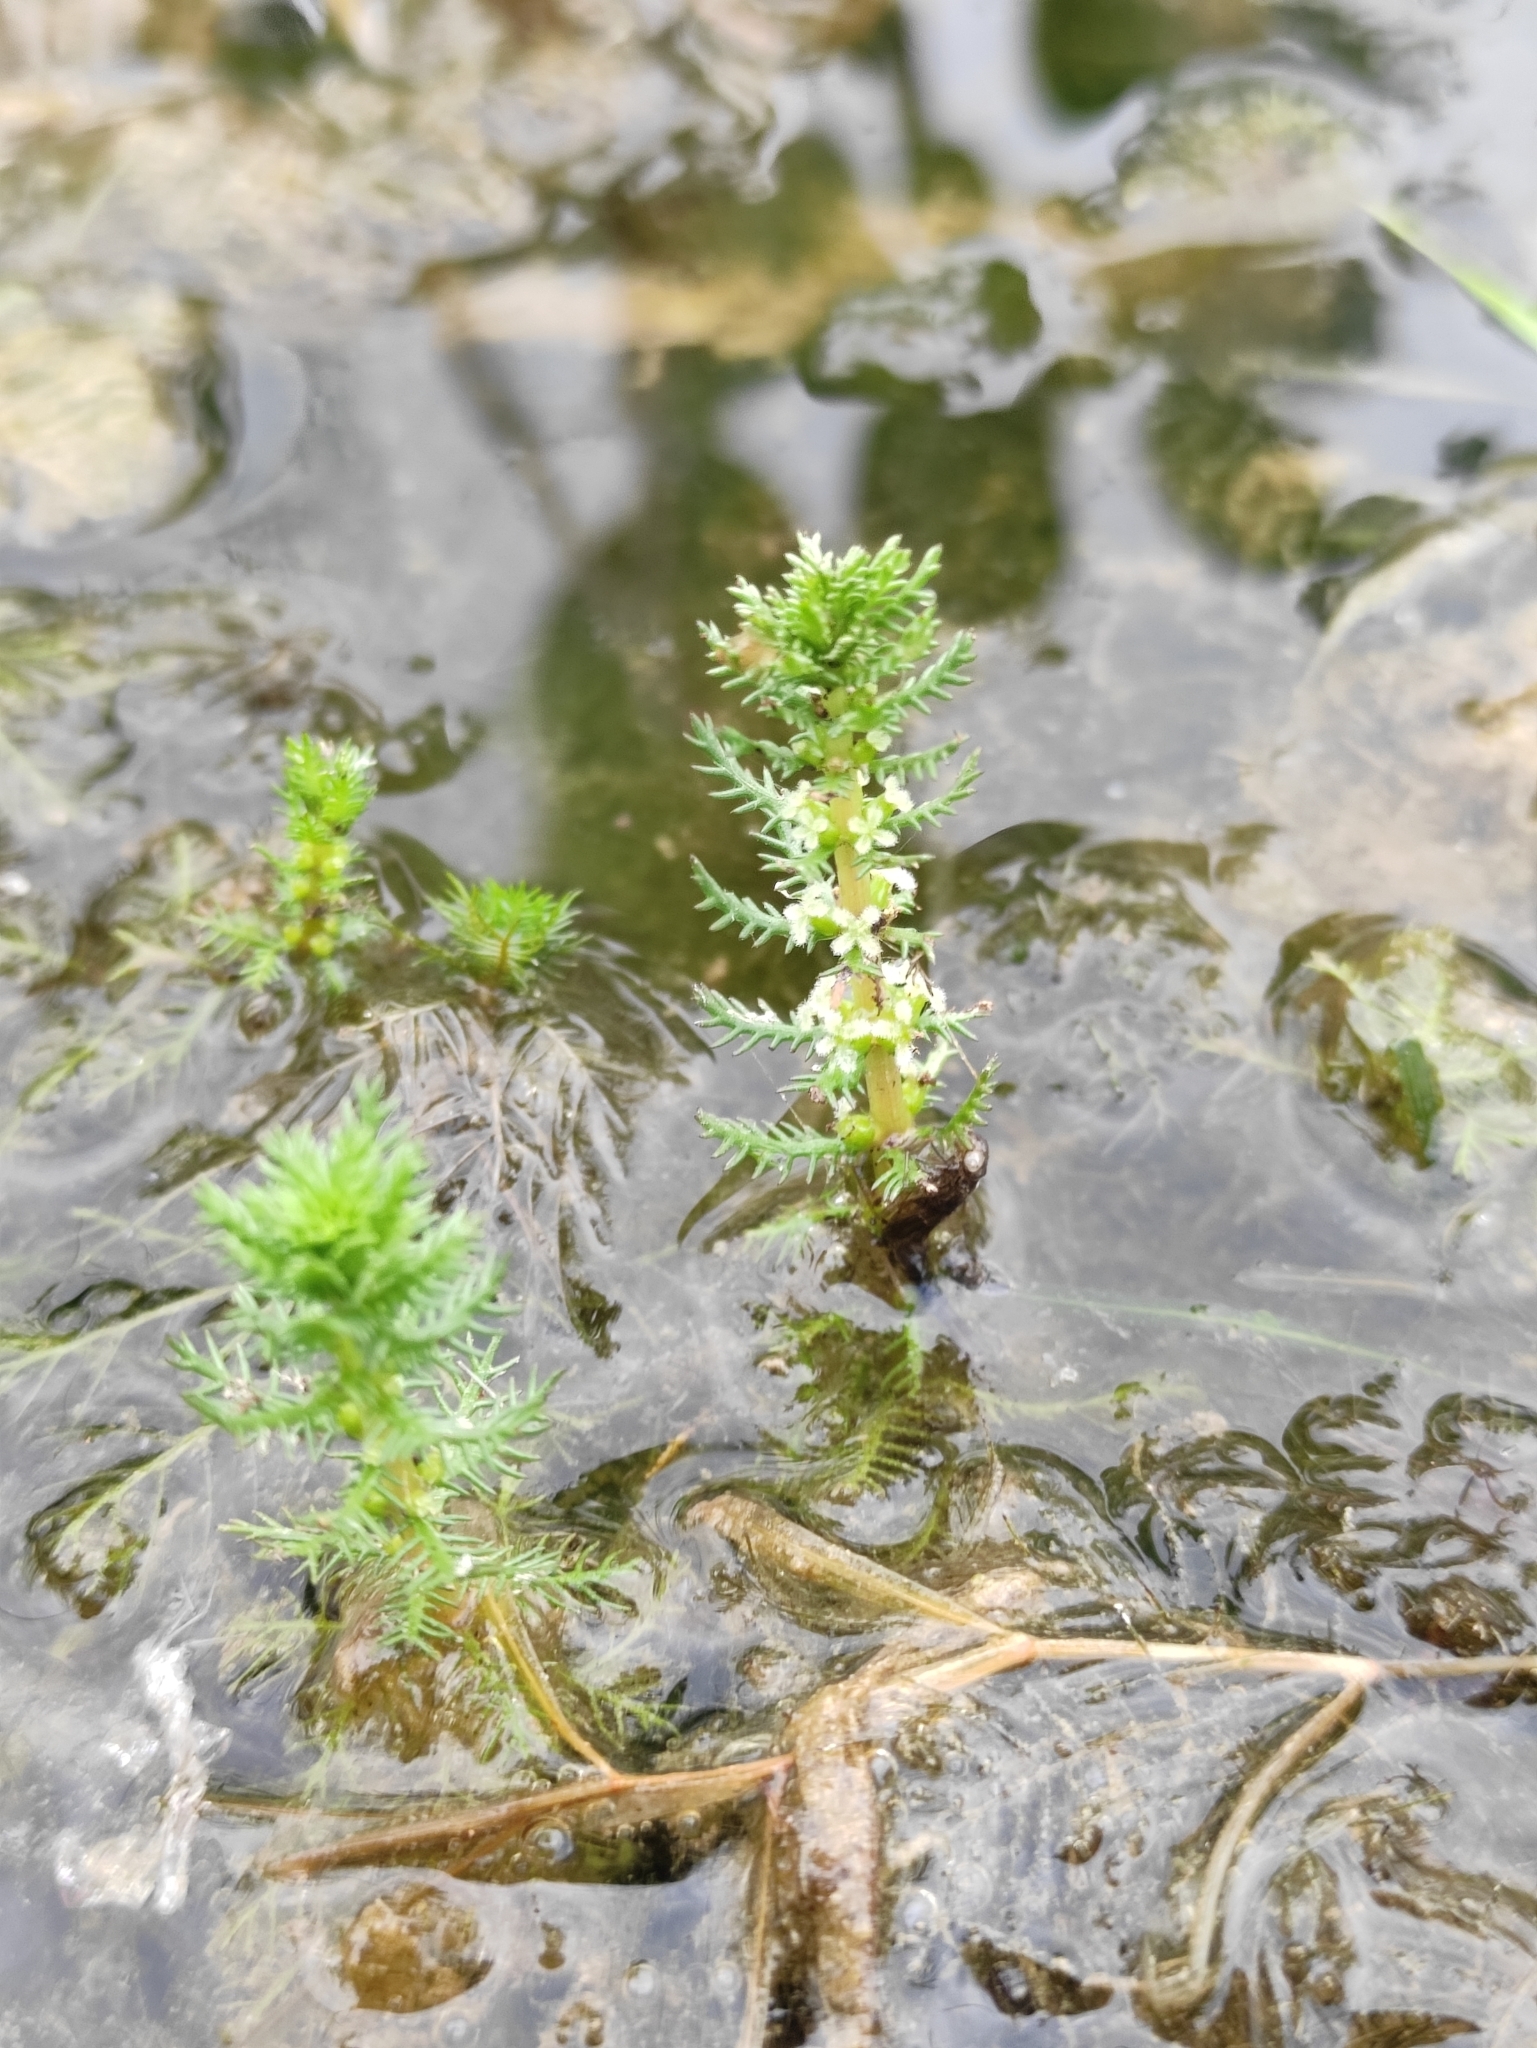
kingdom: Plantae
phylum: Tracheophyta
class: Magnoliopsida
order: Saxifragales
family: Haloragaceae
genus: Myriophyllum
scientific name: Myriophyllum verticillatum
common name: Whorled water-milfoil
